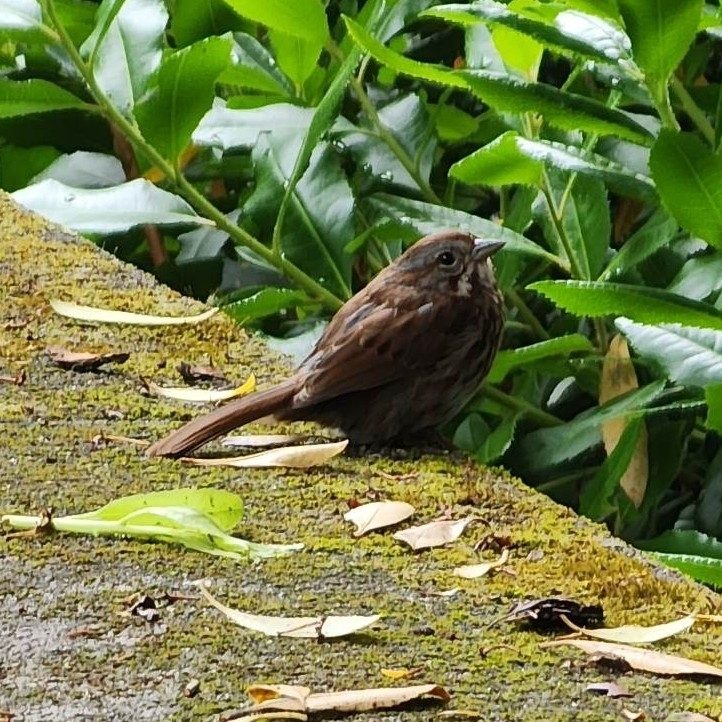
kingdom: Animalia
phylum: Chordata
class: Aves
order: Passeriformes
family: Passerellidae
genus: Melospiza
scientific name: Melospiza melodia
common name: Song sparrow
